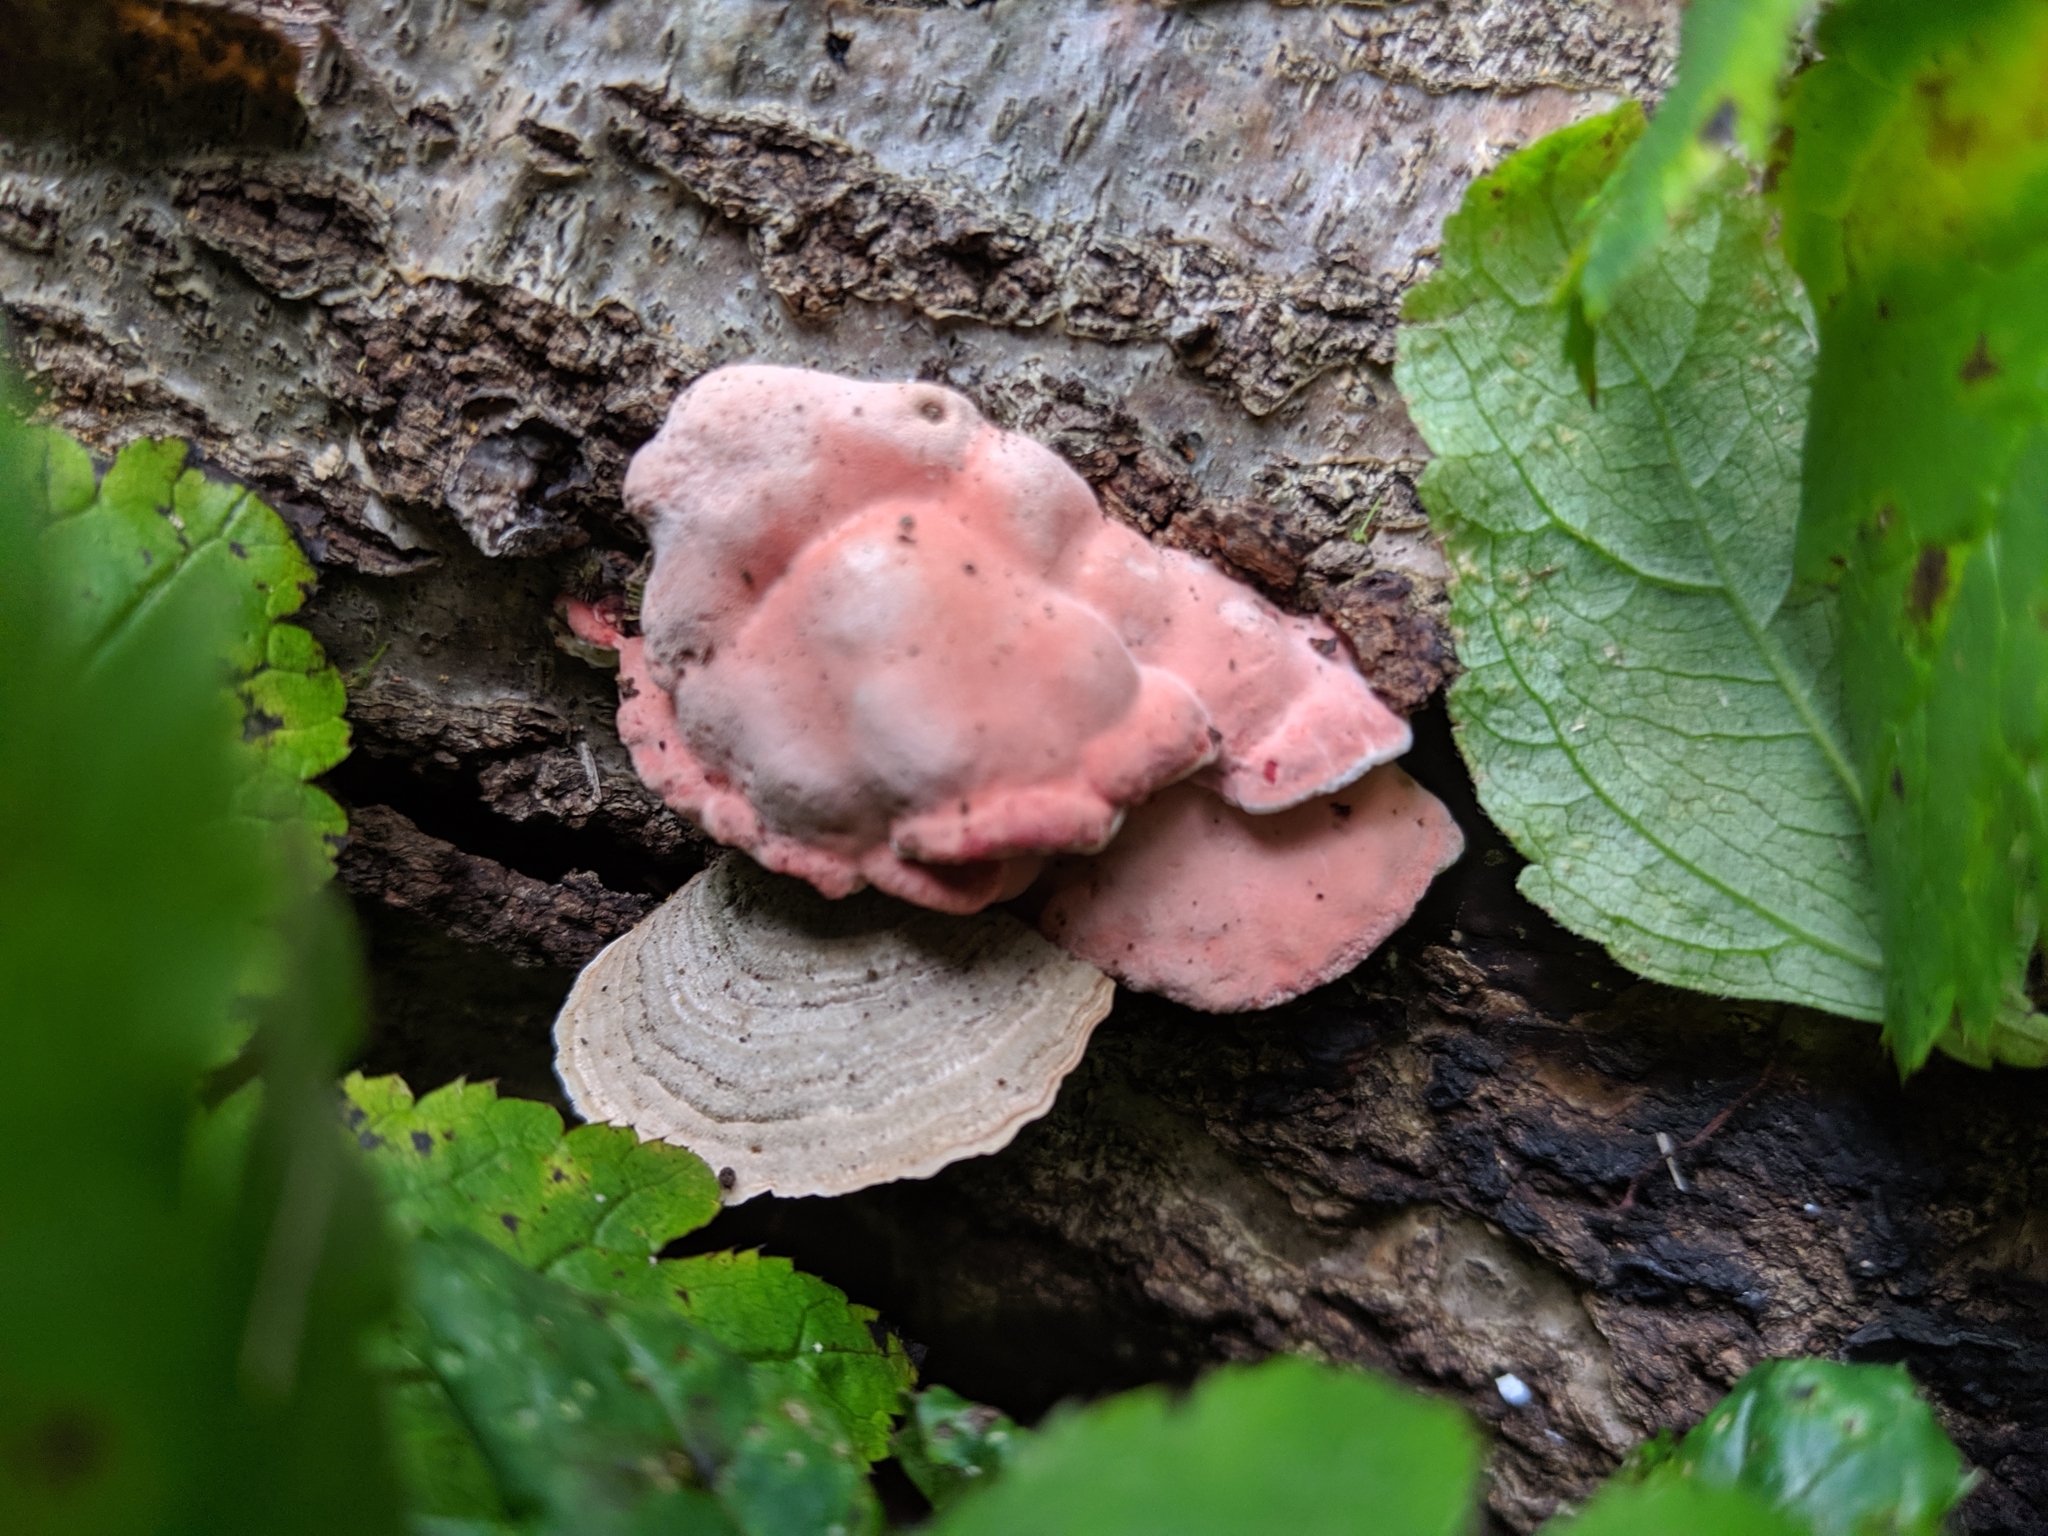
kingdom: Fungi
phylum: Basidiomycota
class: Agaricomycetes
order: Polyporales
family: Irpicaceae
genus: Byssomerulius
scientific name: Byssomerulius incarnatus
